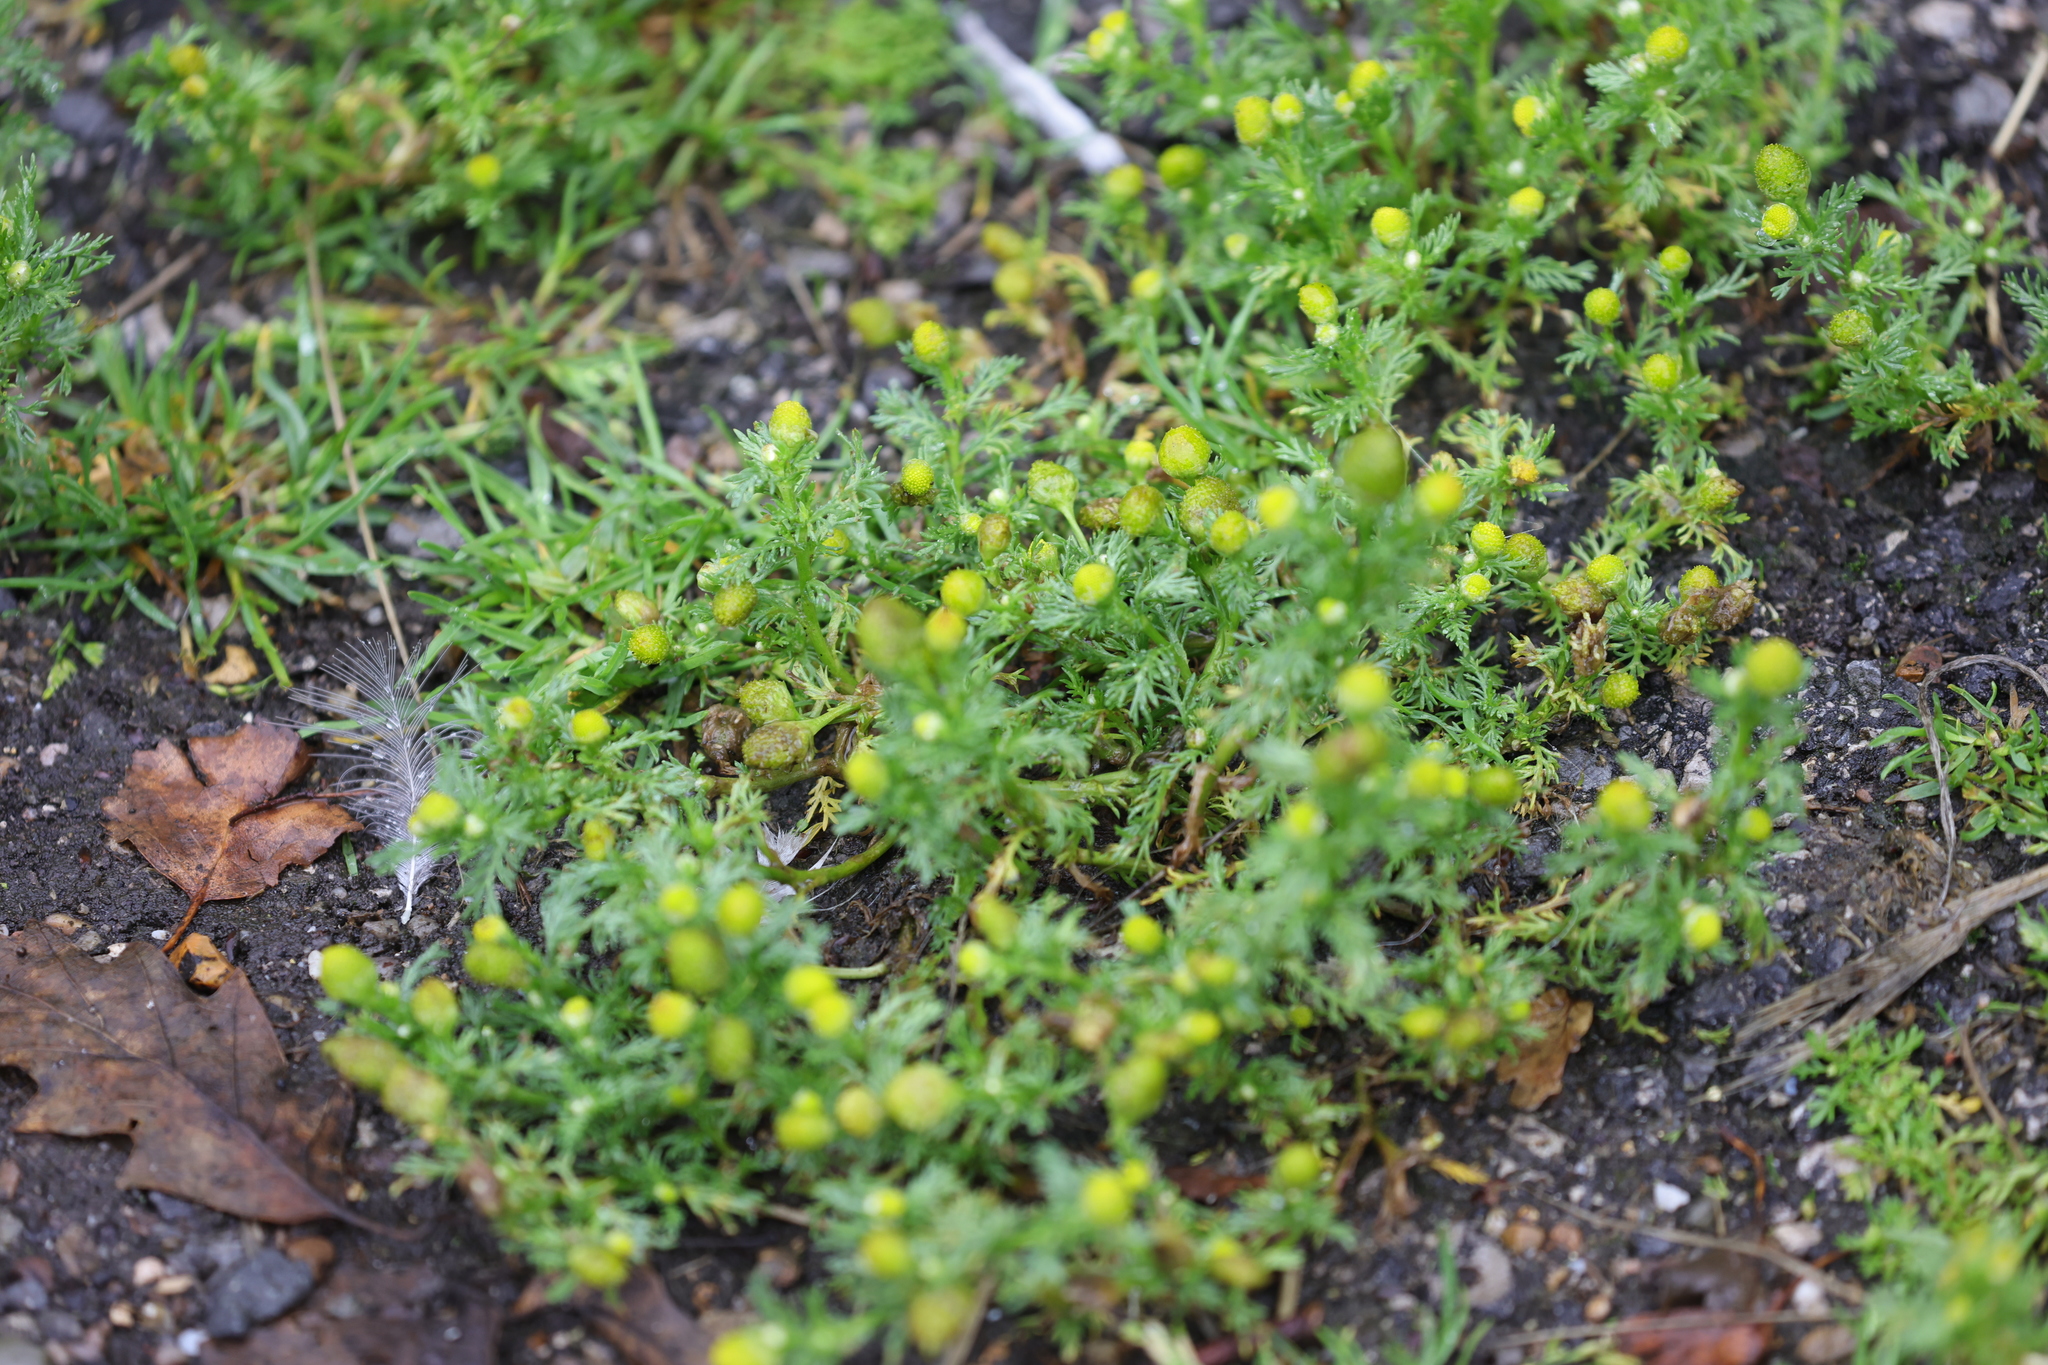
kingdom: Plantae
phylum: Tracheophyta
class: Magnoliopsida
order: Asterales
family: Asteraceae
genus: Matricaria
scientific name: Matricaria discoidea
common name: Disc mayweed
